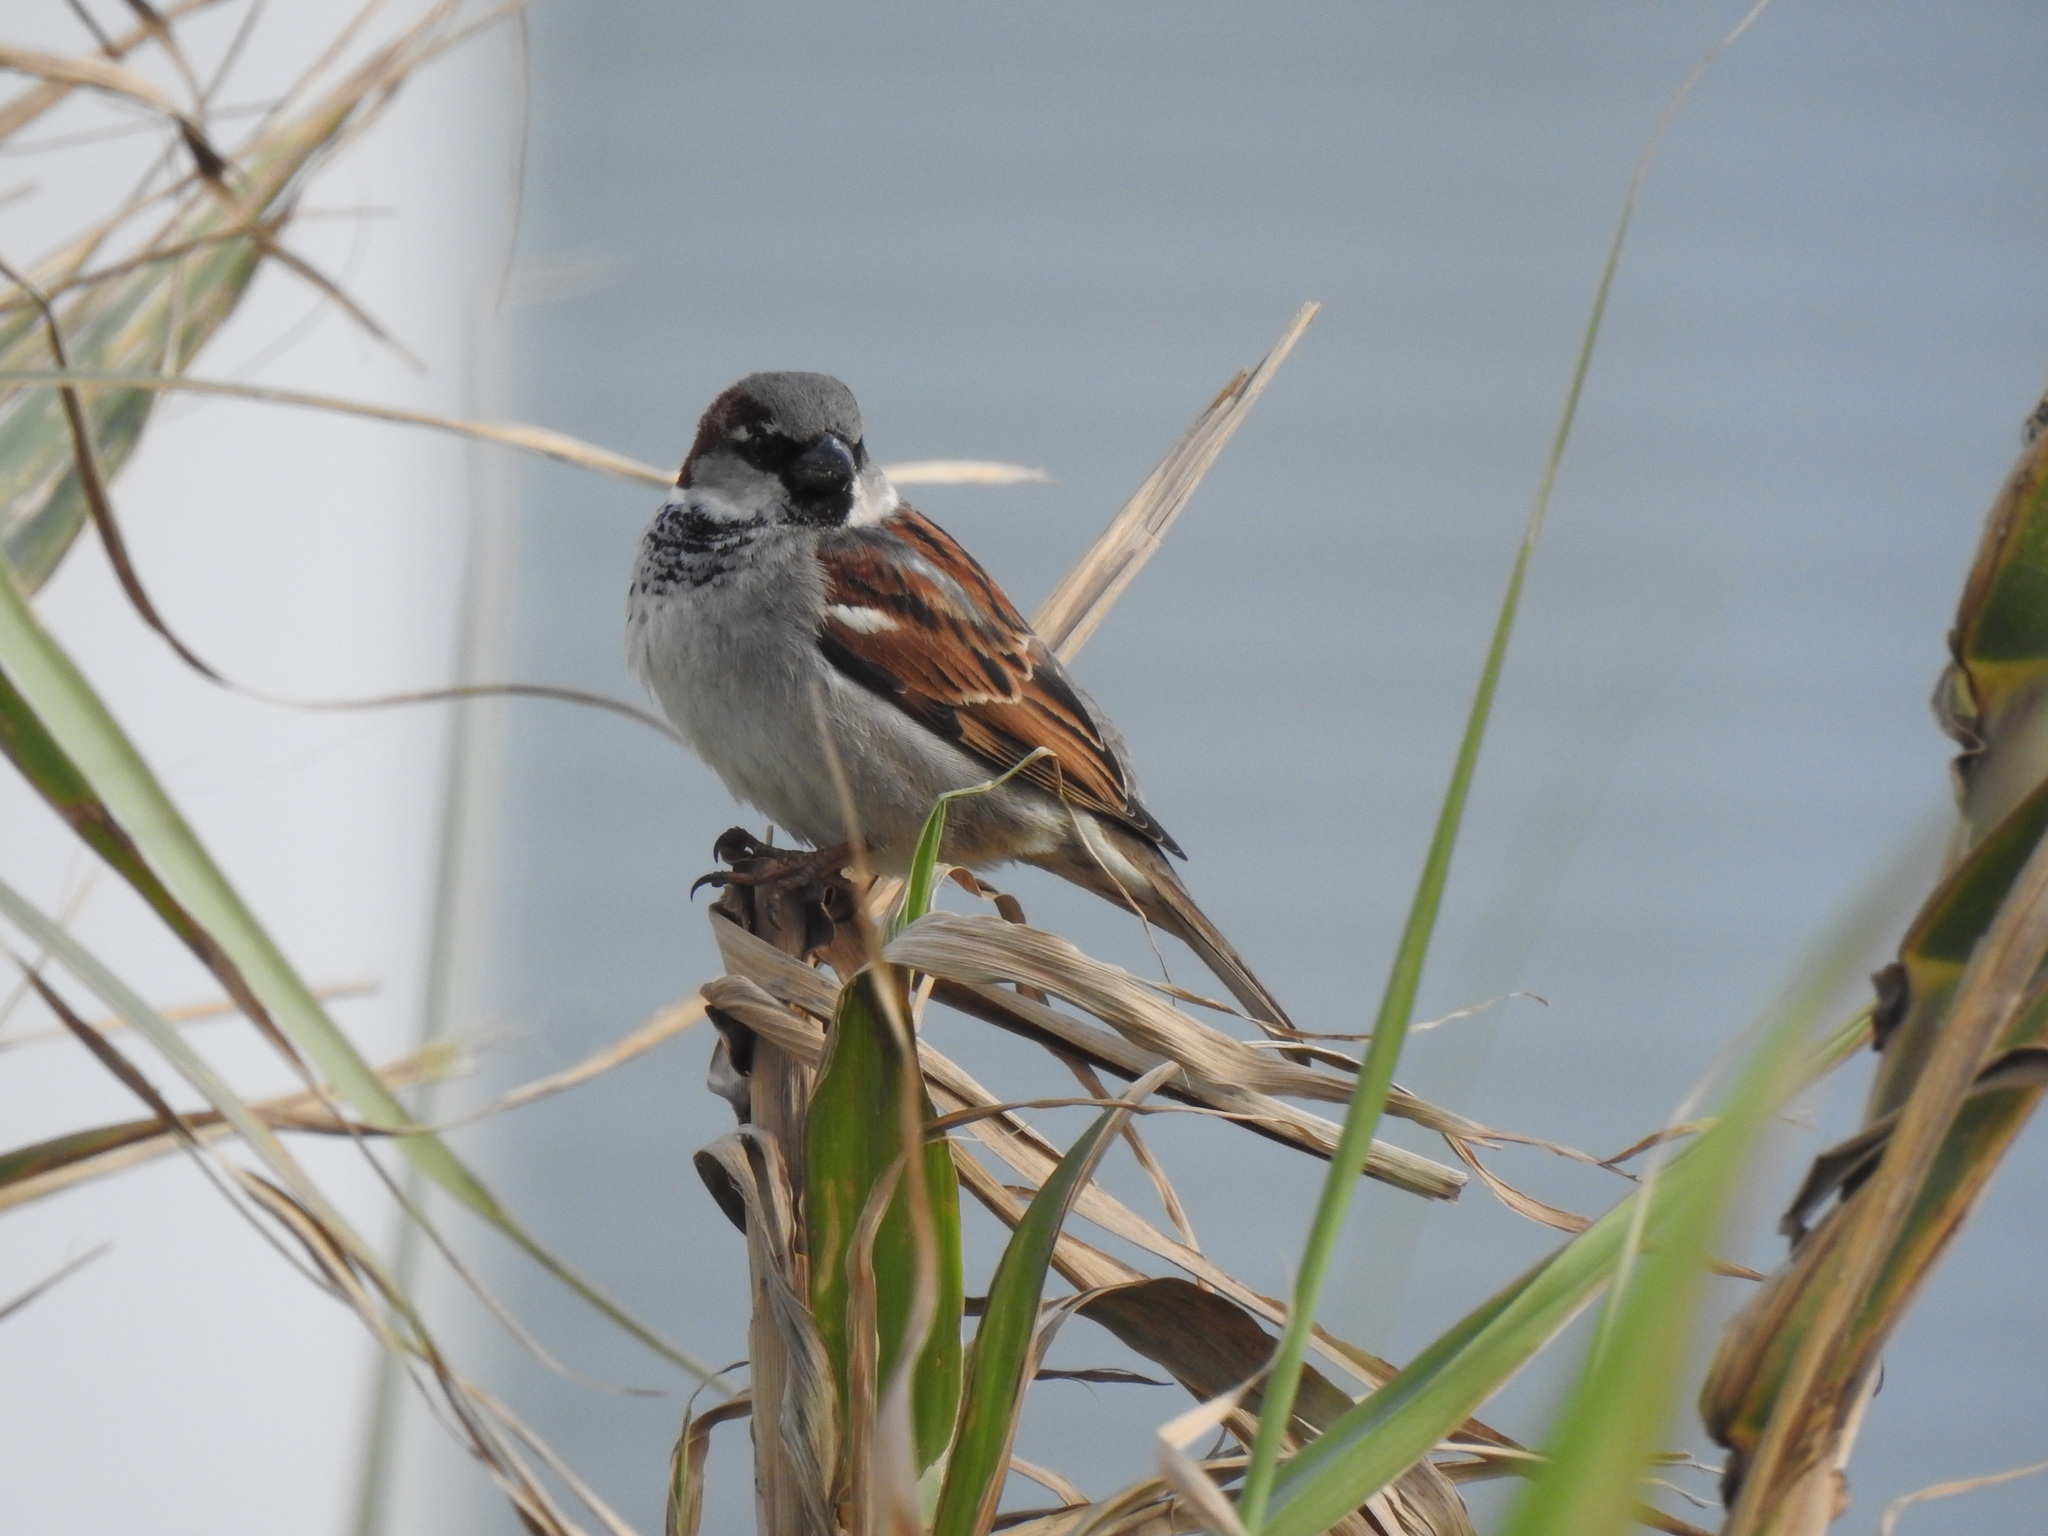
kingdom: Animalia
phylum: Chordata
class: Aves
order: Passeriformes
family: Passeridae
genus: Passer
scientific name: Passer domesticus
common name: House sparrow
